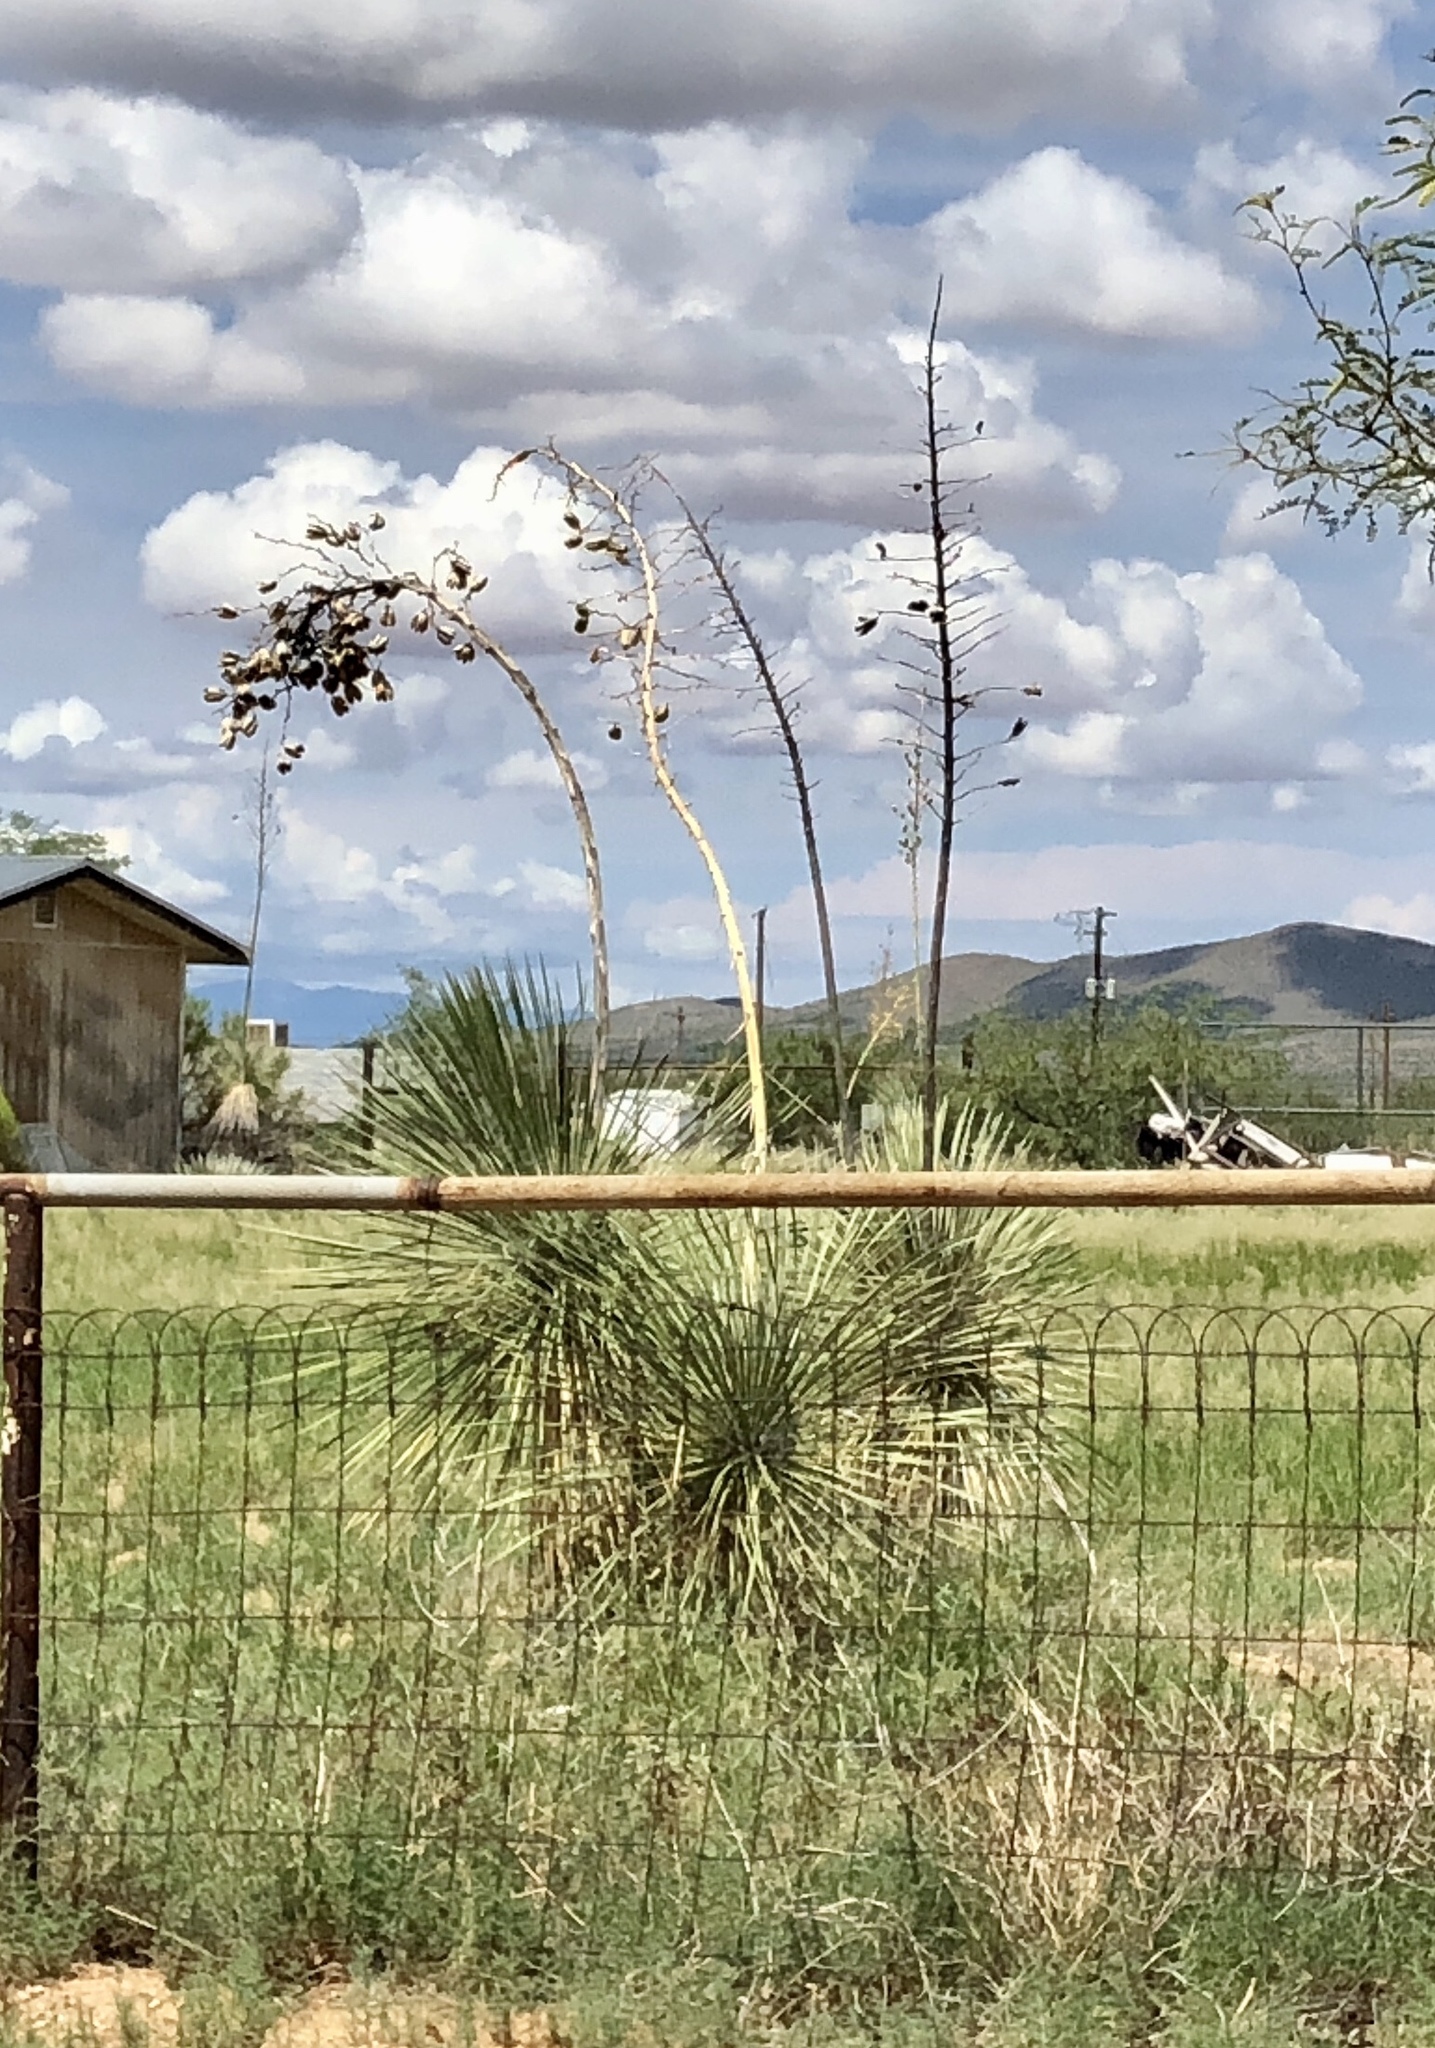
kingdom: Plantae
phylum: Tracheophyta
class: Liliopsida
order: Asparagales
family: Asparagaceae
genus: Yucca
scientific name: Yucca elata
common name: Palmella
